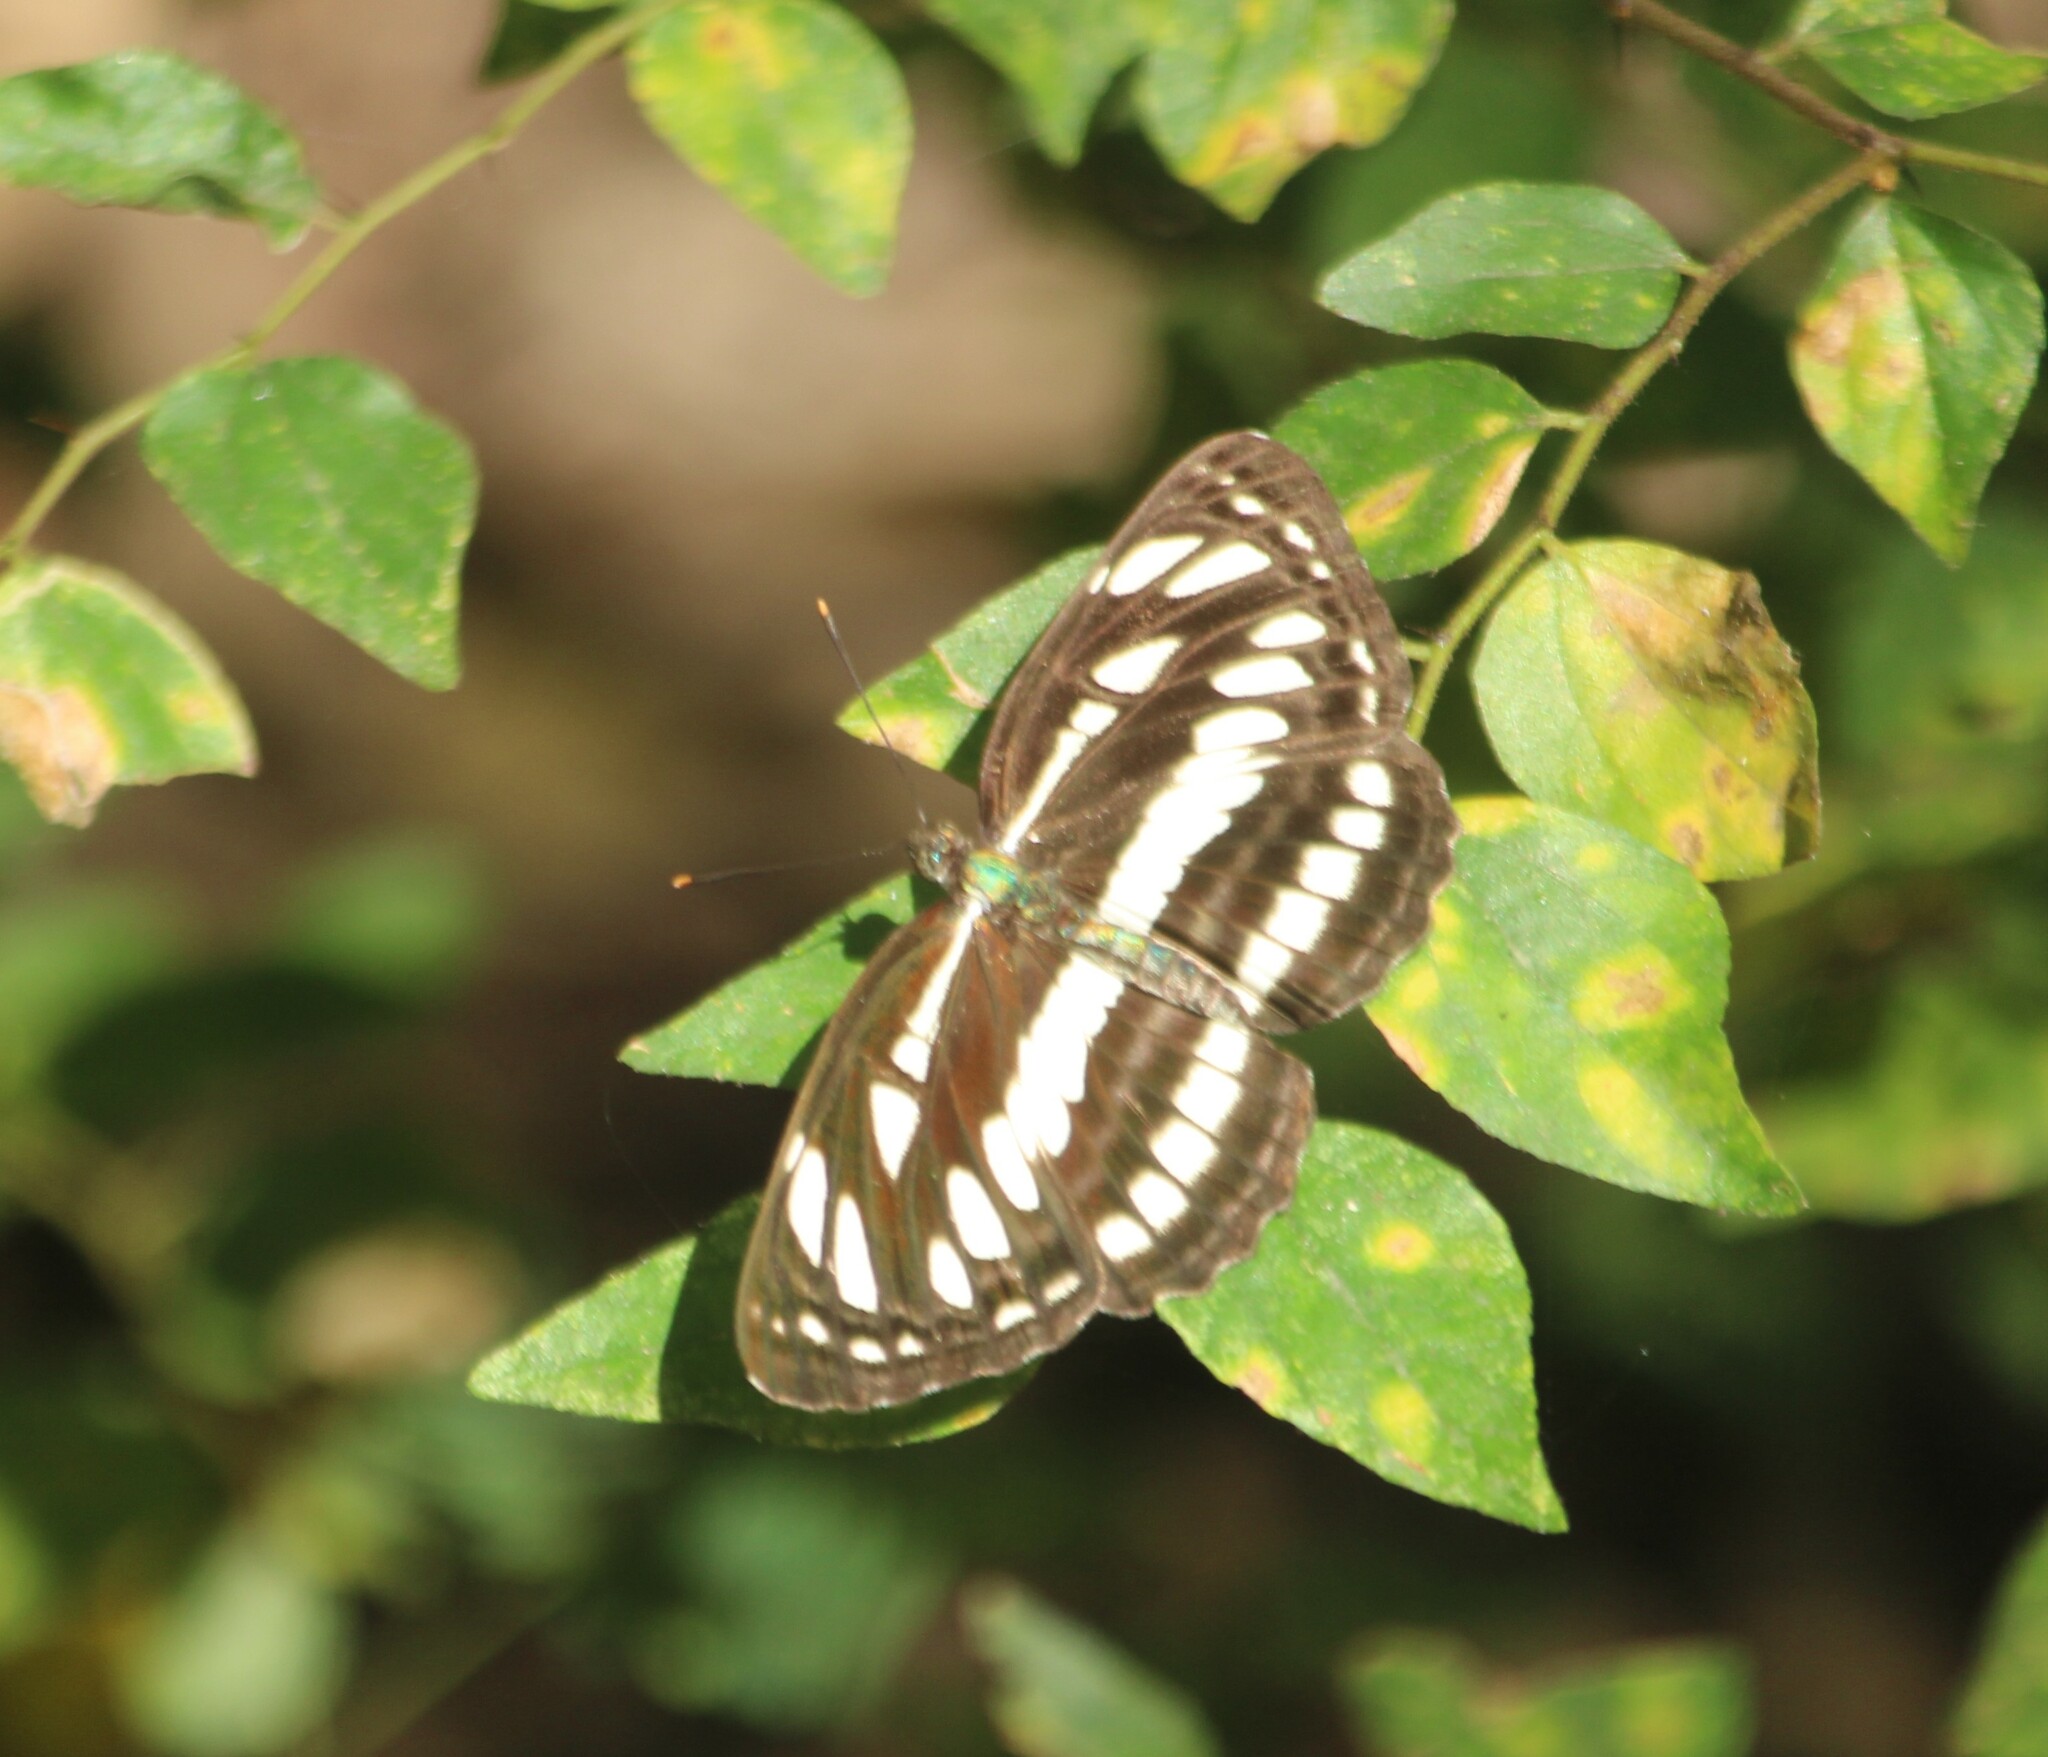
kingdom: Animalia
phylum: Arthropoda
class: Insecta
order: Lepidoptera
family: Nymphalidae
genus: Neptis
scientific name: Neptis hylas
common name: Common sailer
